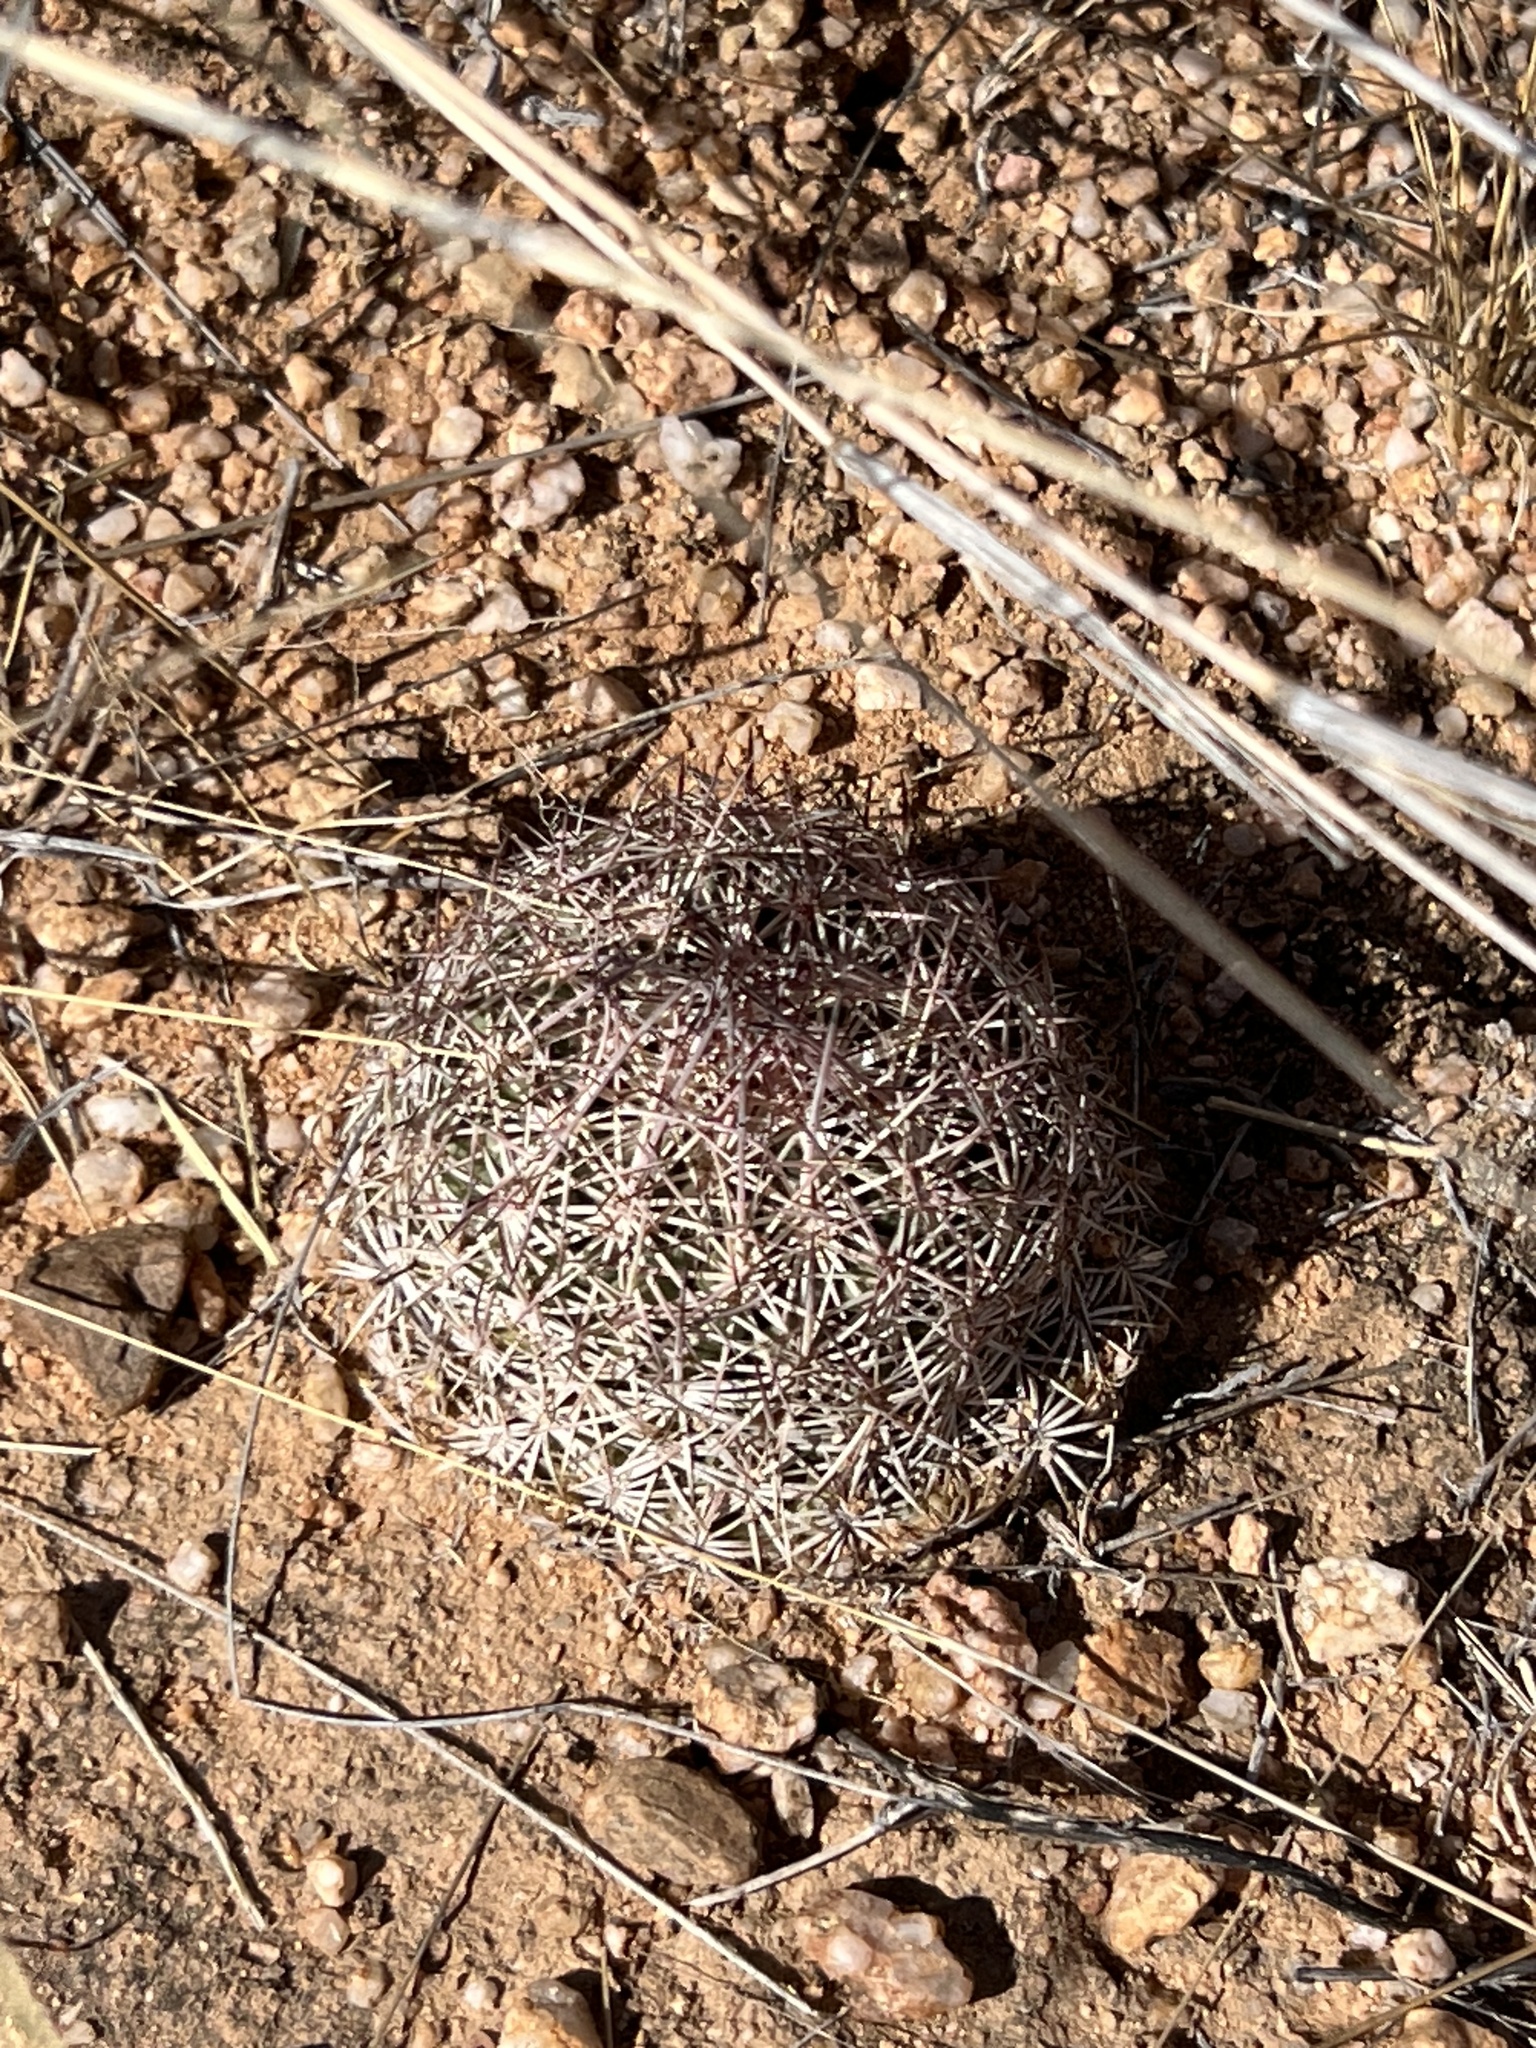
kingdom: Plantae
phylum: Tracheophyta
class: Magnoliopsida
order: Caryophyllales
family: Cactaceae
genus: Sclerocactus
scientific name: Sclerocactus johnsonii
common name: Eight-spine fishhook cactus
